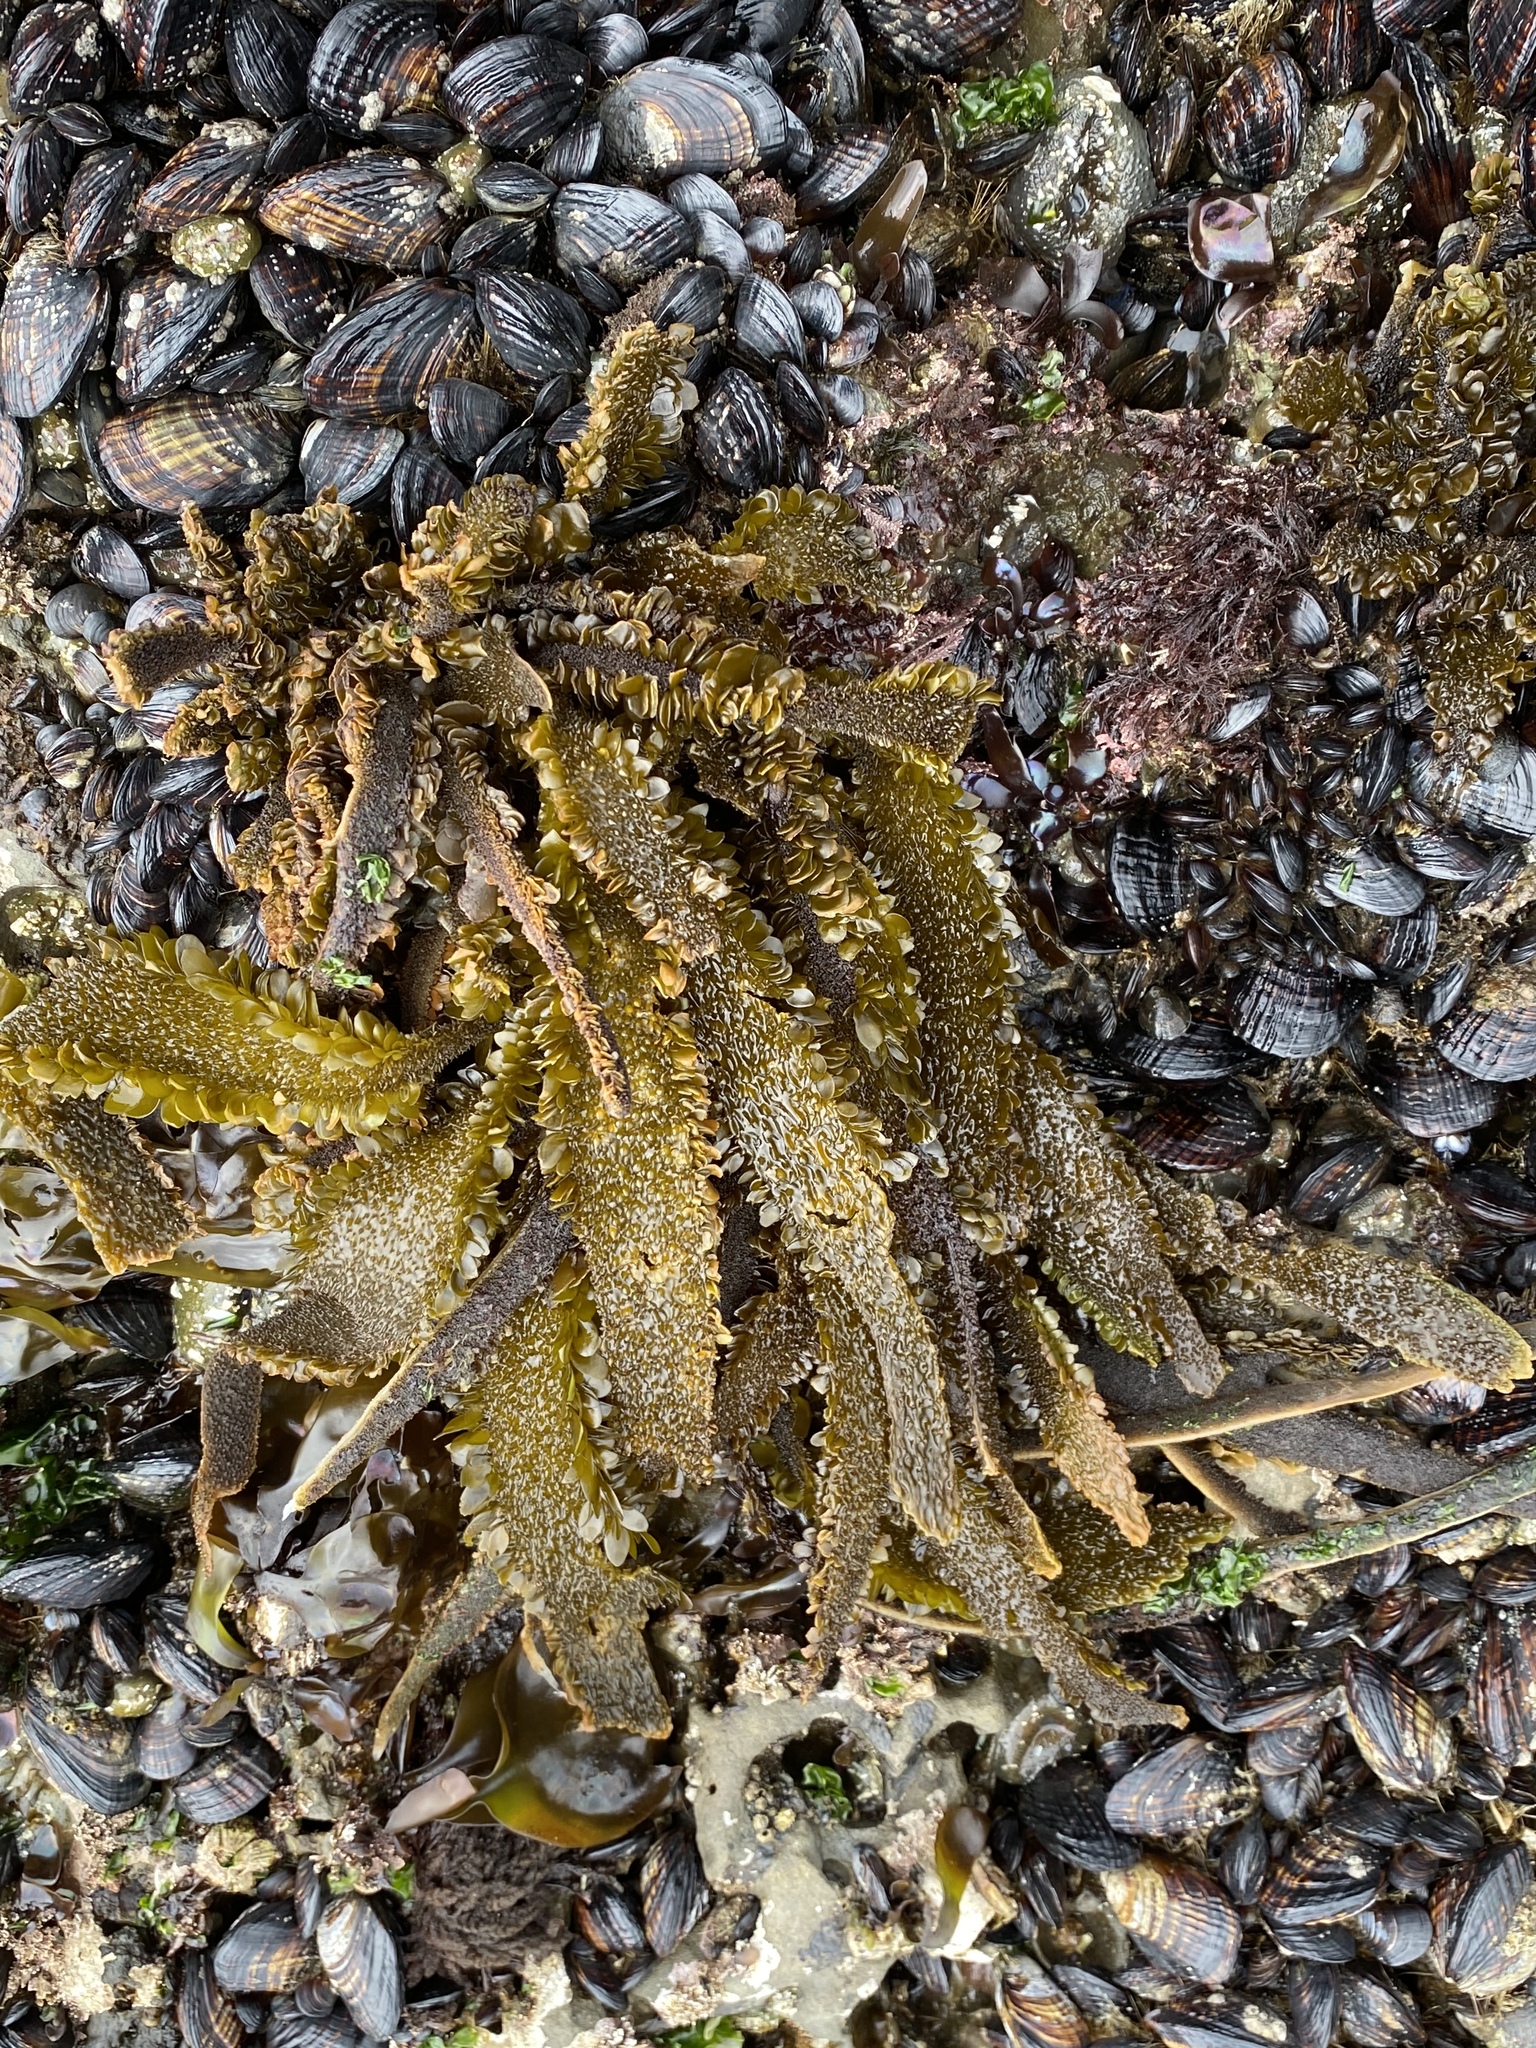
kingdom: Chromista
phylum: Ochrophyta
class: Phaeophyceae
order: Laminariales
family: Lessoniaceae
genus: Egregia
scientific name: Egregia menziesii
